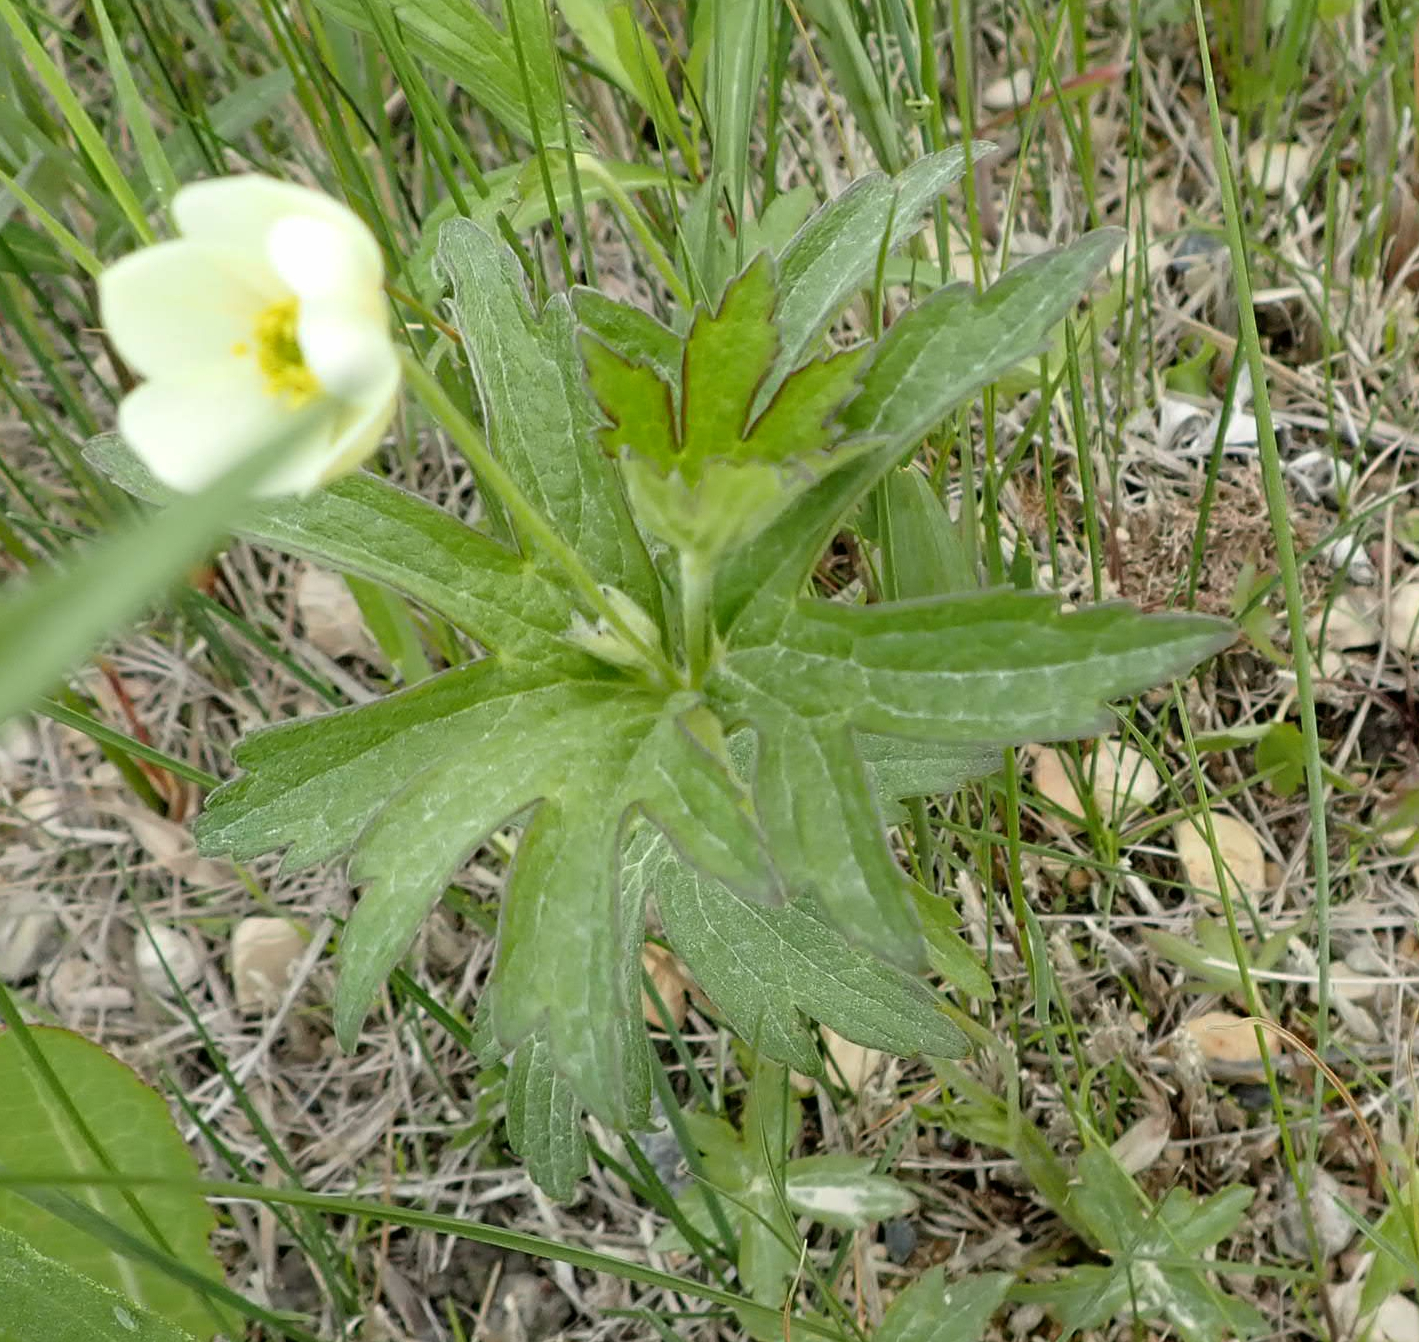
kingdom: Plantae
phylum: Tracheophyta
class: Magnoliopsida
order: Ranunculales
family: Ranunculaceae
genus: Anemonastrum
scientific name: Anemonastrum canadense
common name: Canada anemone
